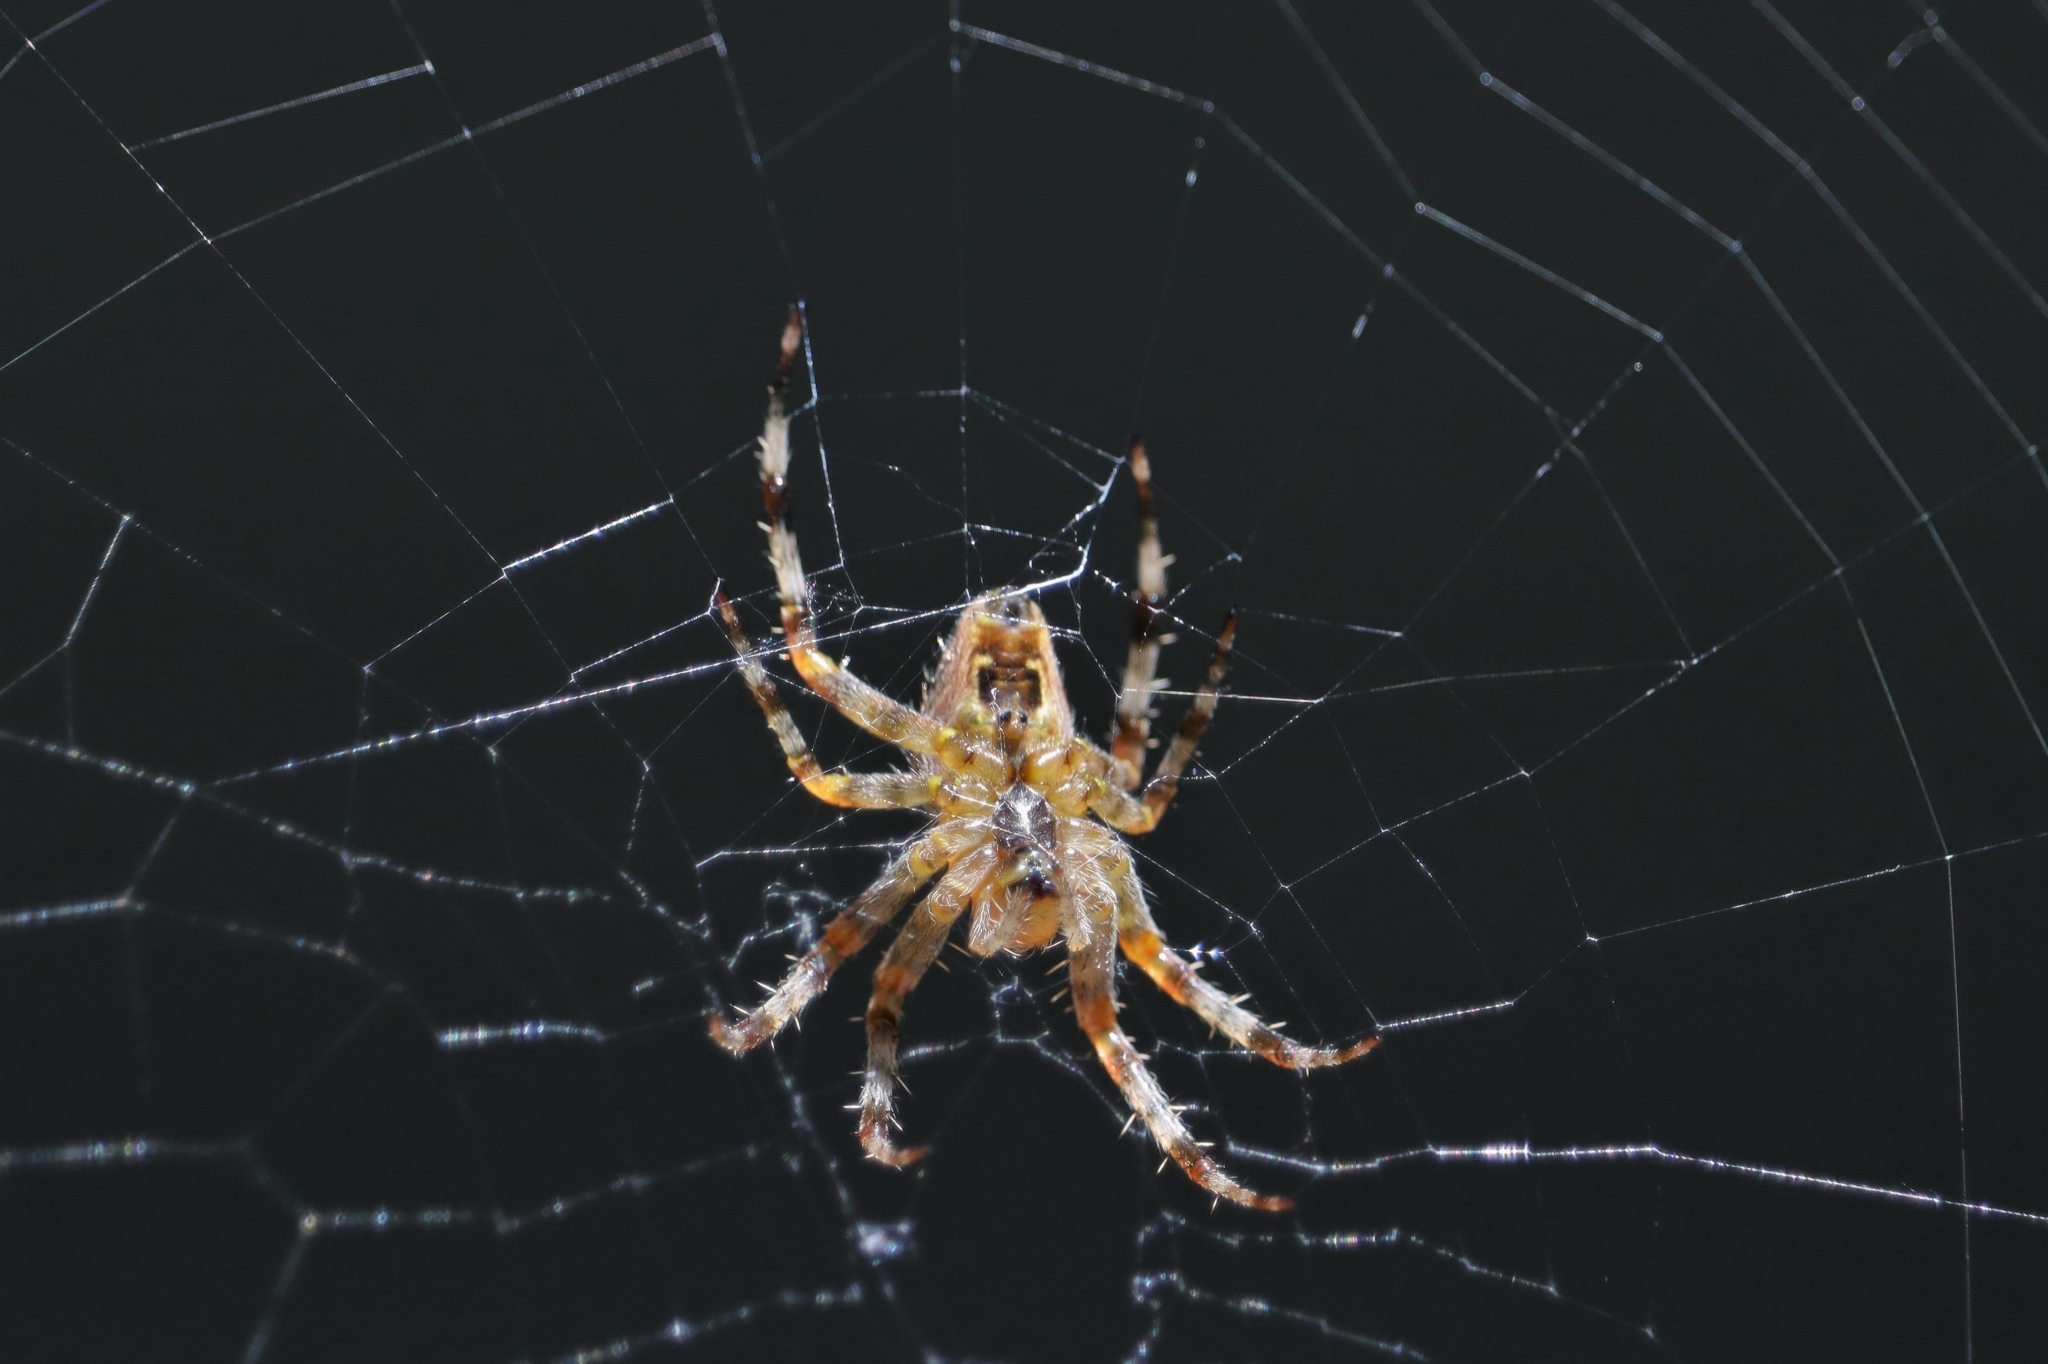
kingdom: Animalia
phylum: Arthropoda
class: Arachnida
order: Araneae
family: Araneidae
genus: Araneus
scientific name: Araneus diadematus
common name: Cross orbweaver
